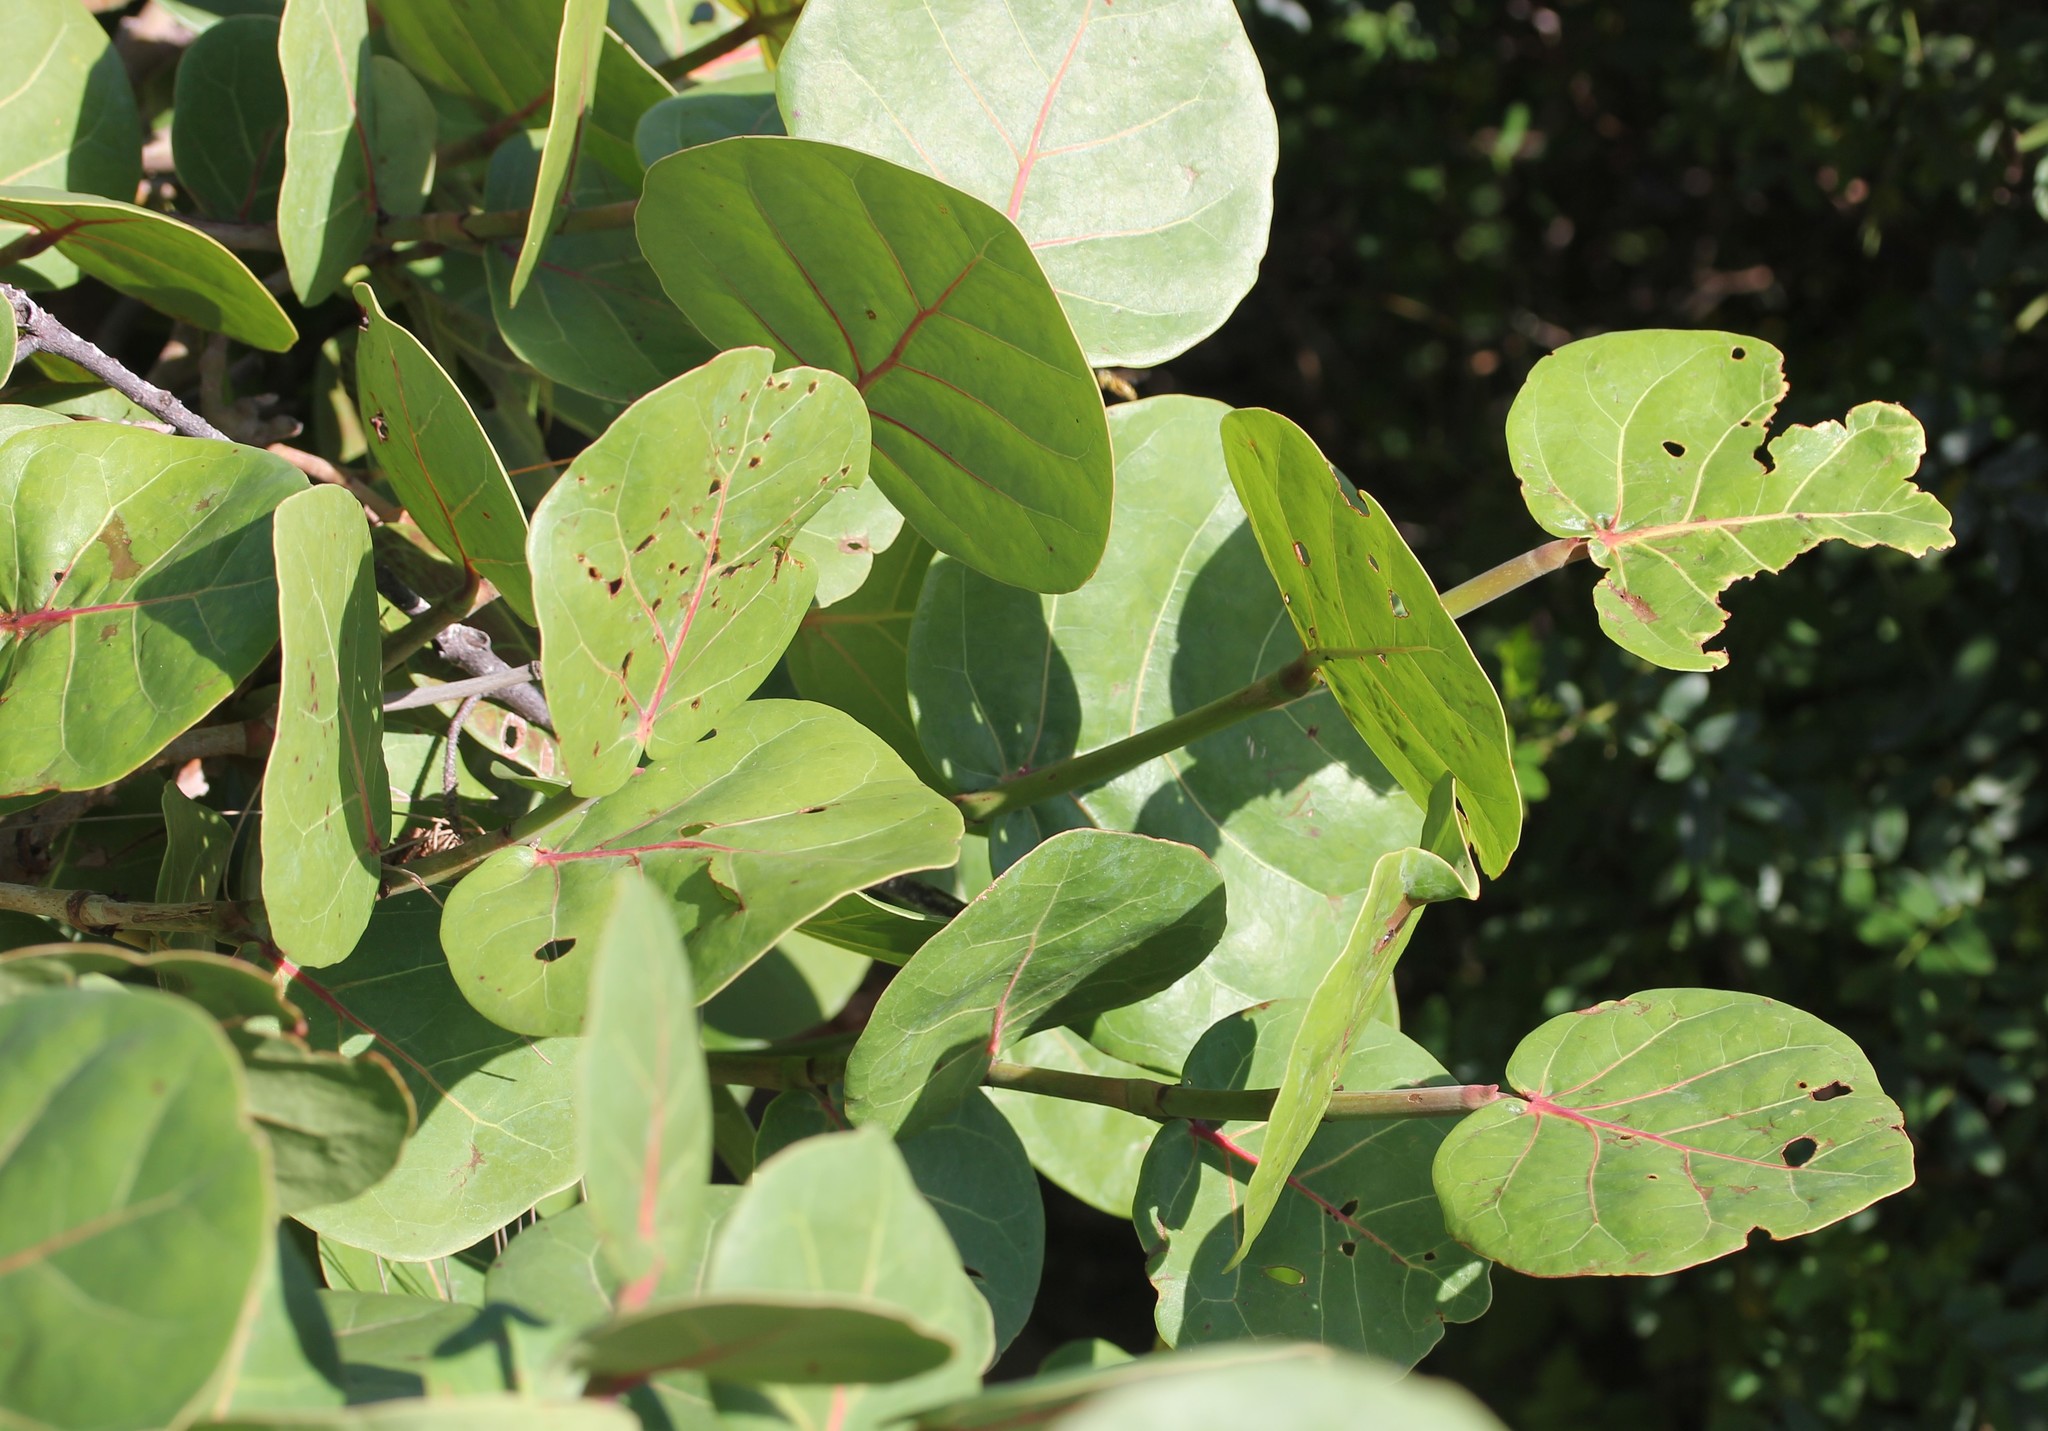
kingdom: Plantae
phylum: Tracheophyta
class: Magnoliopsida
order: Caryophyllales
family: Polygonaceae
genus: Coccoloba
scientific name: Coccoloba uvifera
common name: Seagrape
